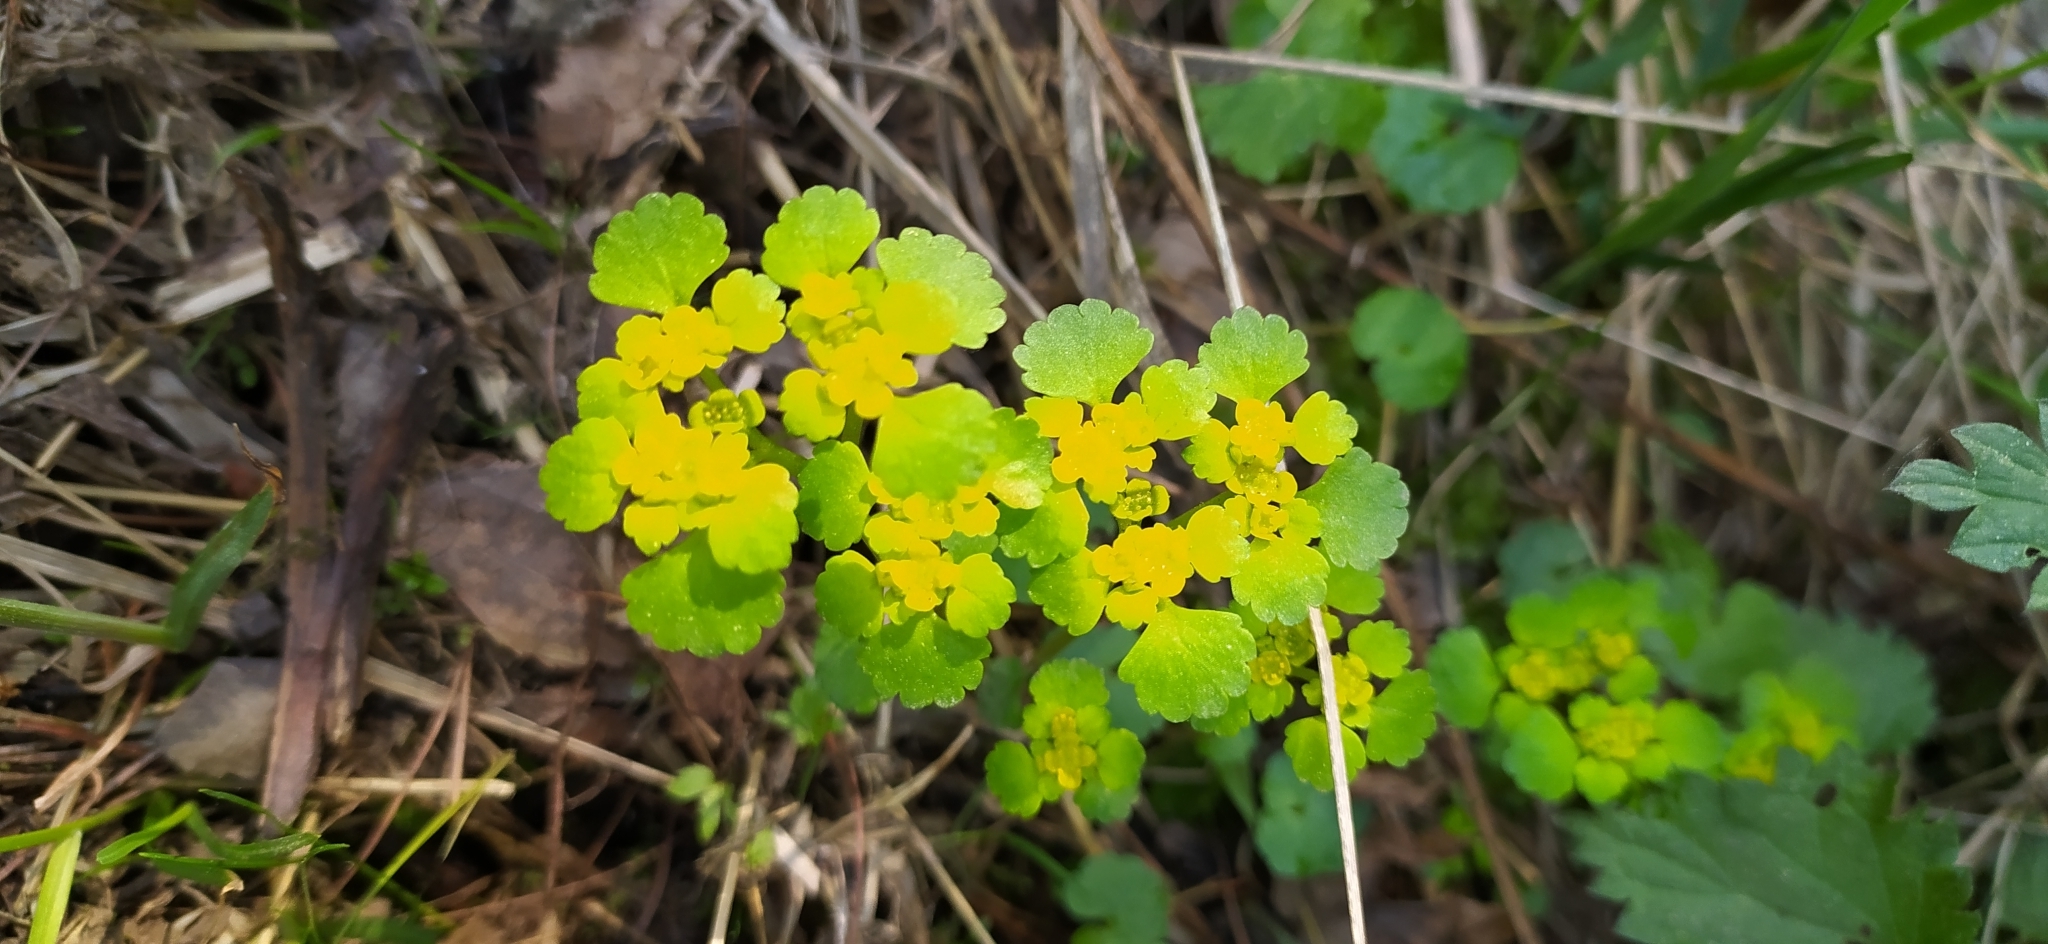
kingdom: Plantae
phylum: Tracheophyta
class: Magnoliopsida
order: Saxifragales
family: Saxifragaceae
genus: Chrysosplenium
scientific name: Chrysosplenium alternifolium
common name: Alternate-leaved golden-saxifrage
